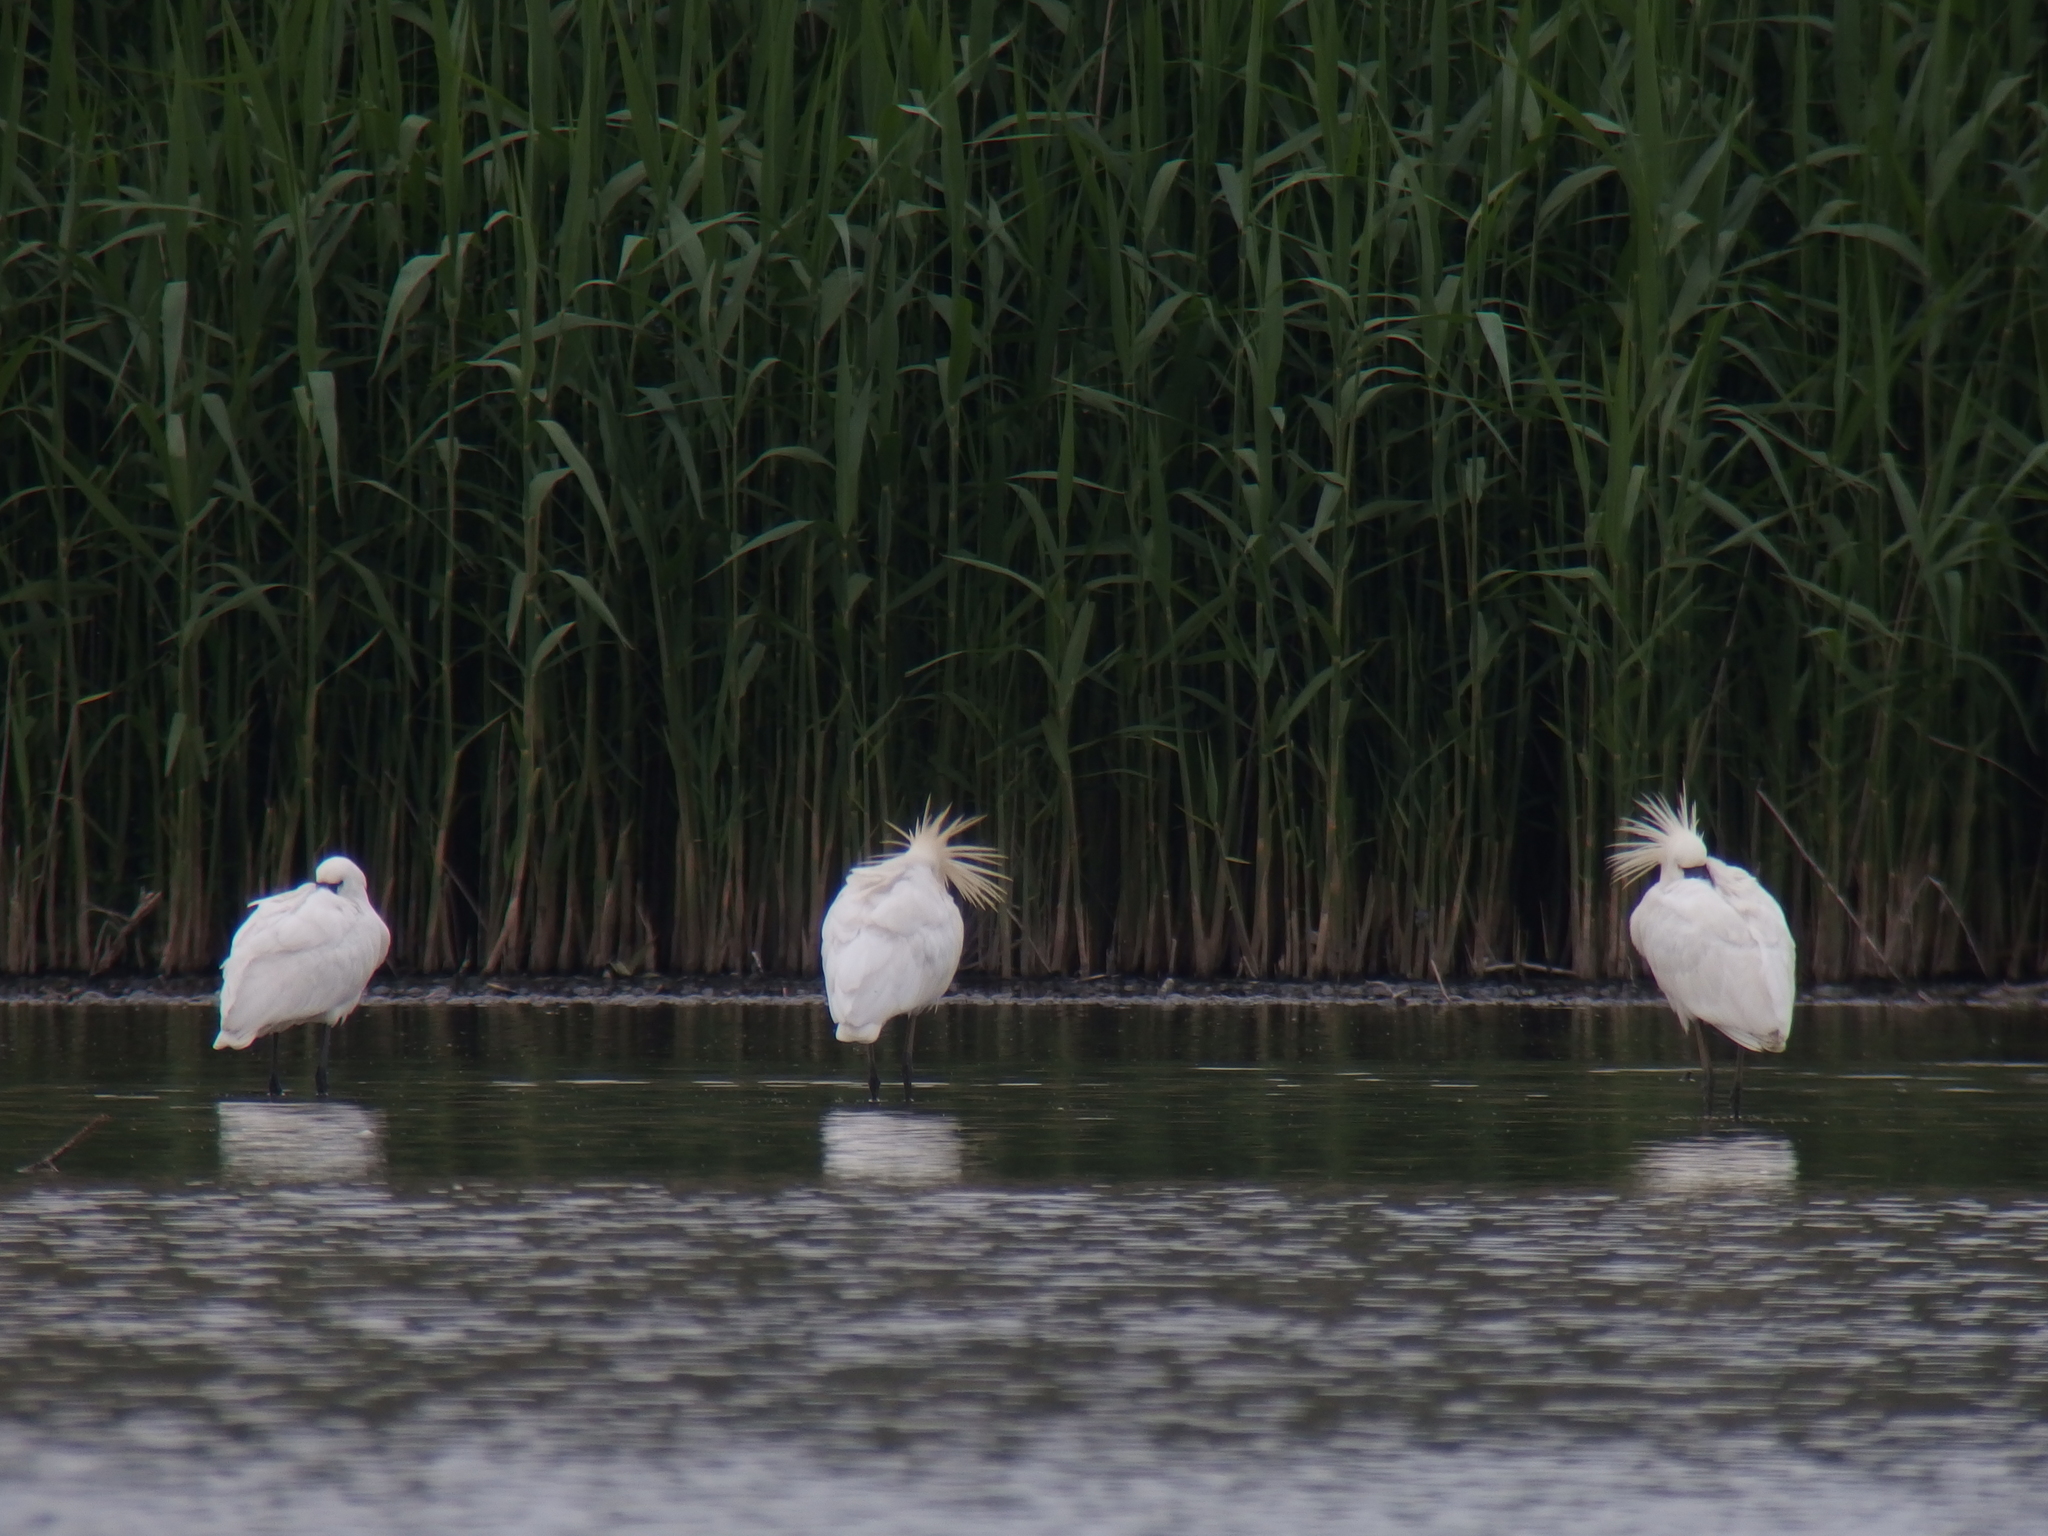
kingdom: Animalia
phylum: Chordata
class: Aves
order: Pelecaniformes
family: Threskiornithidae
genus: Platalea
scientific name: Platalea leucorodia
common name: Eurasian spoonbill
